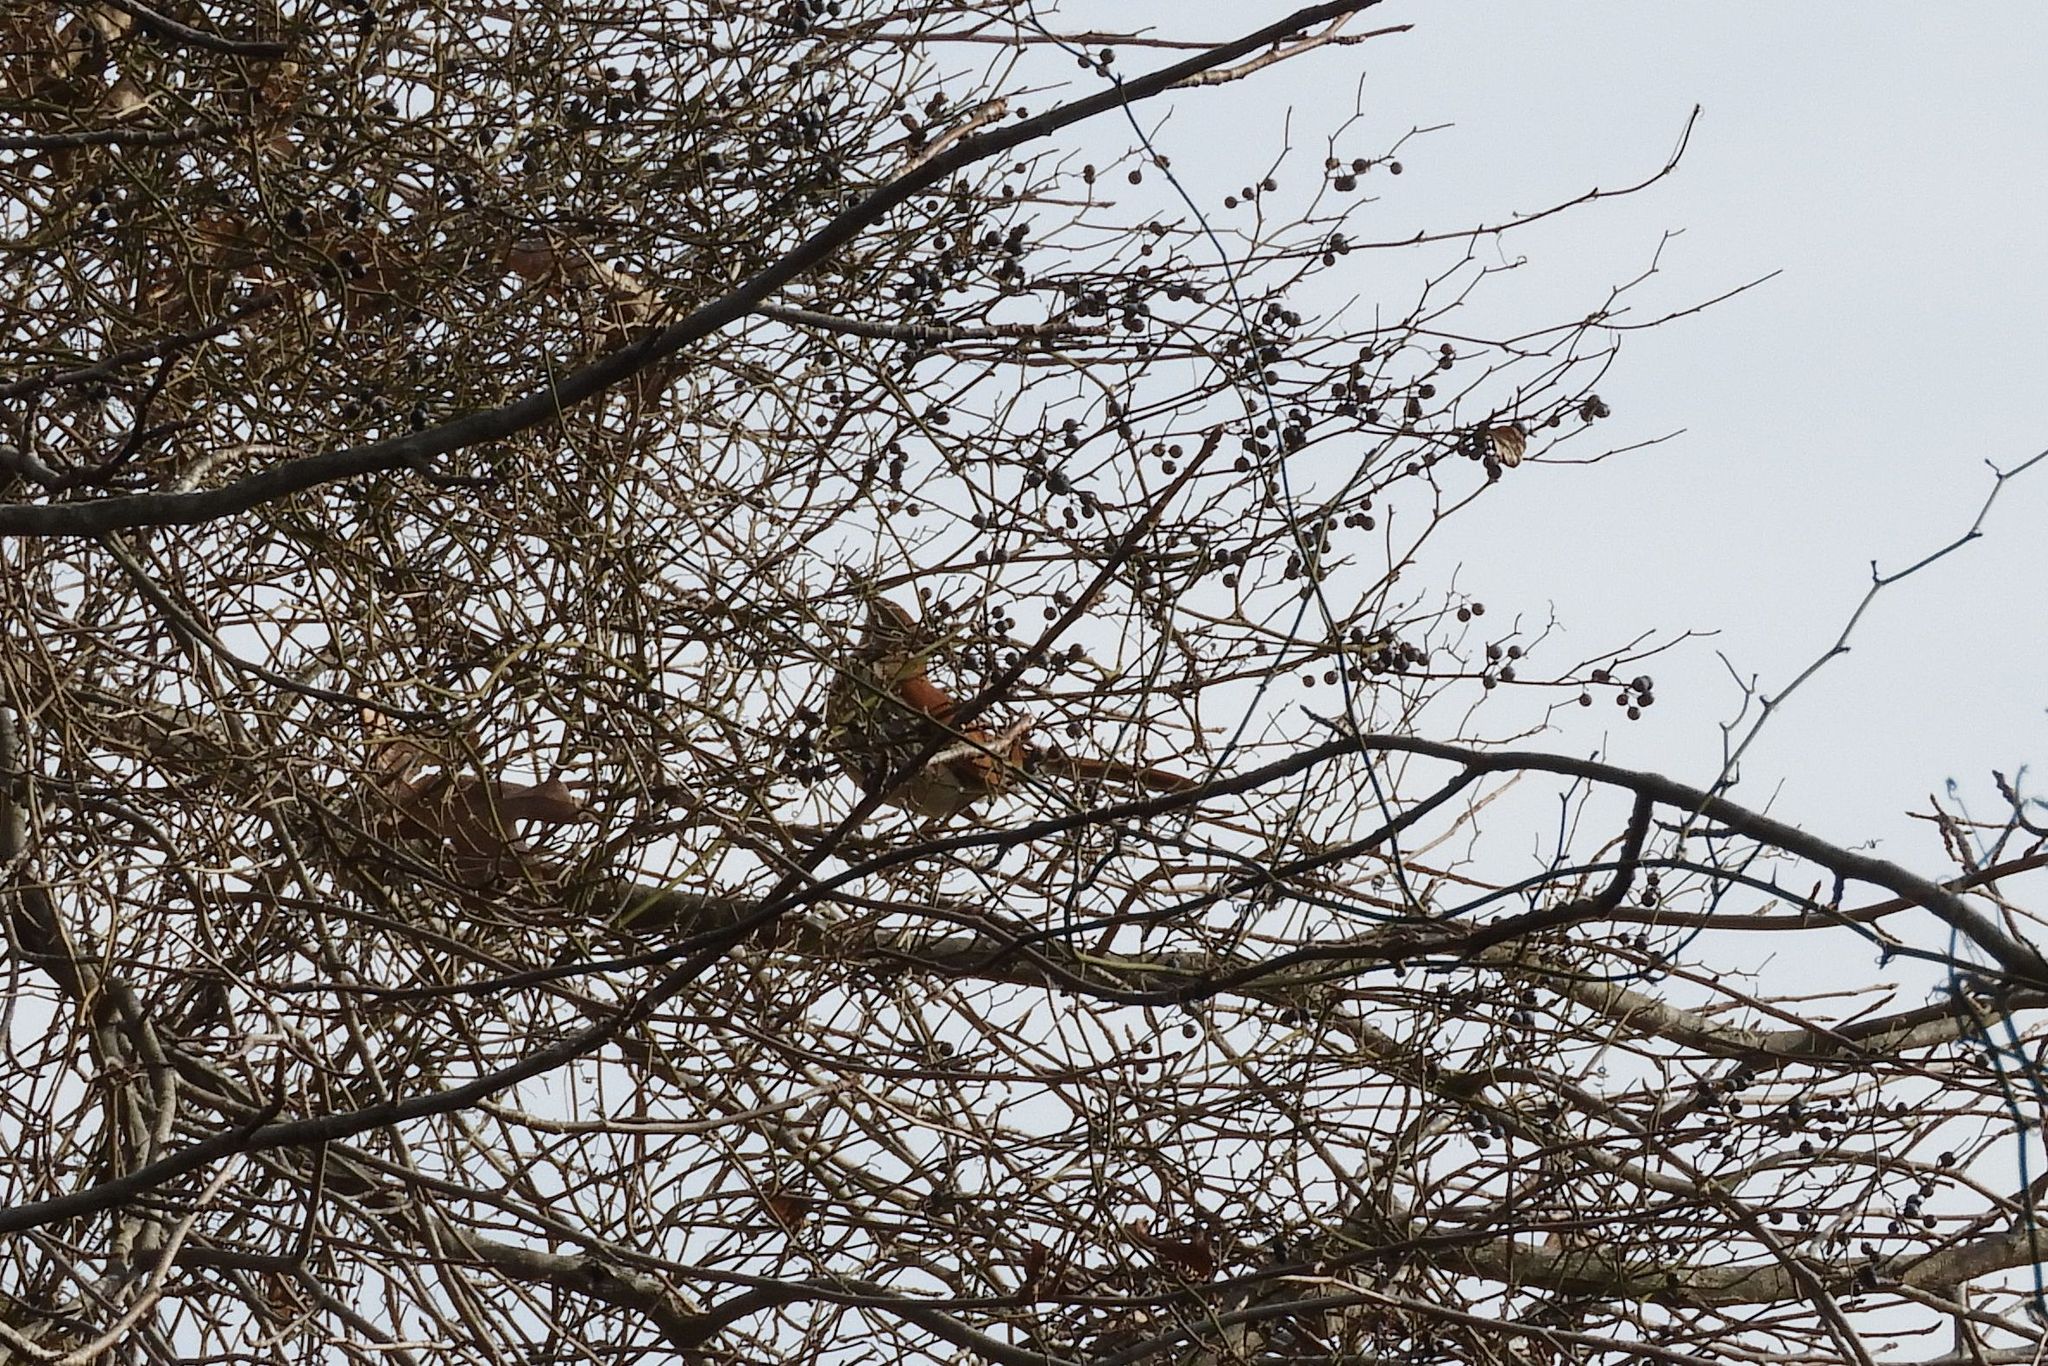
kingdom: Animalia
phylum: Chordata
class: Aves
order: Passeriformes
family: Mimidae
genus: Toxostoma
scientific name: Toxostoma rufum
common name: Brown thrasher
